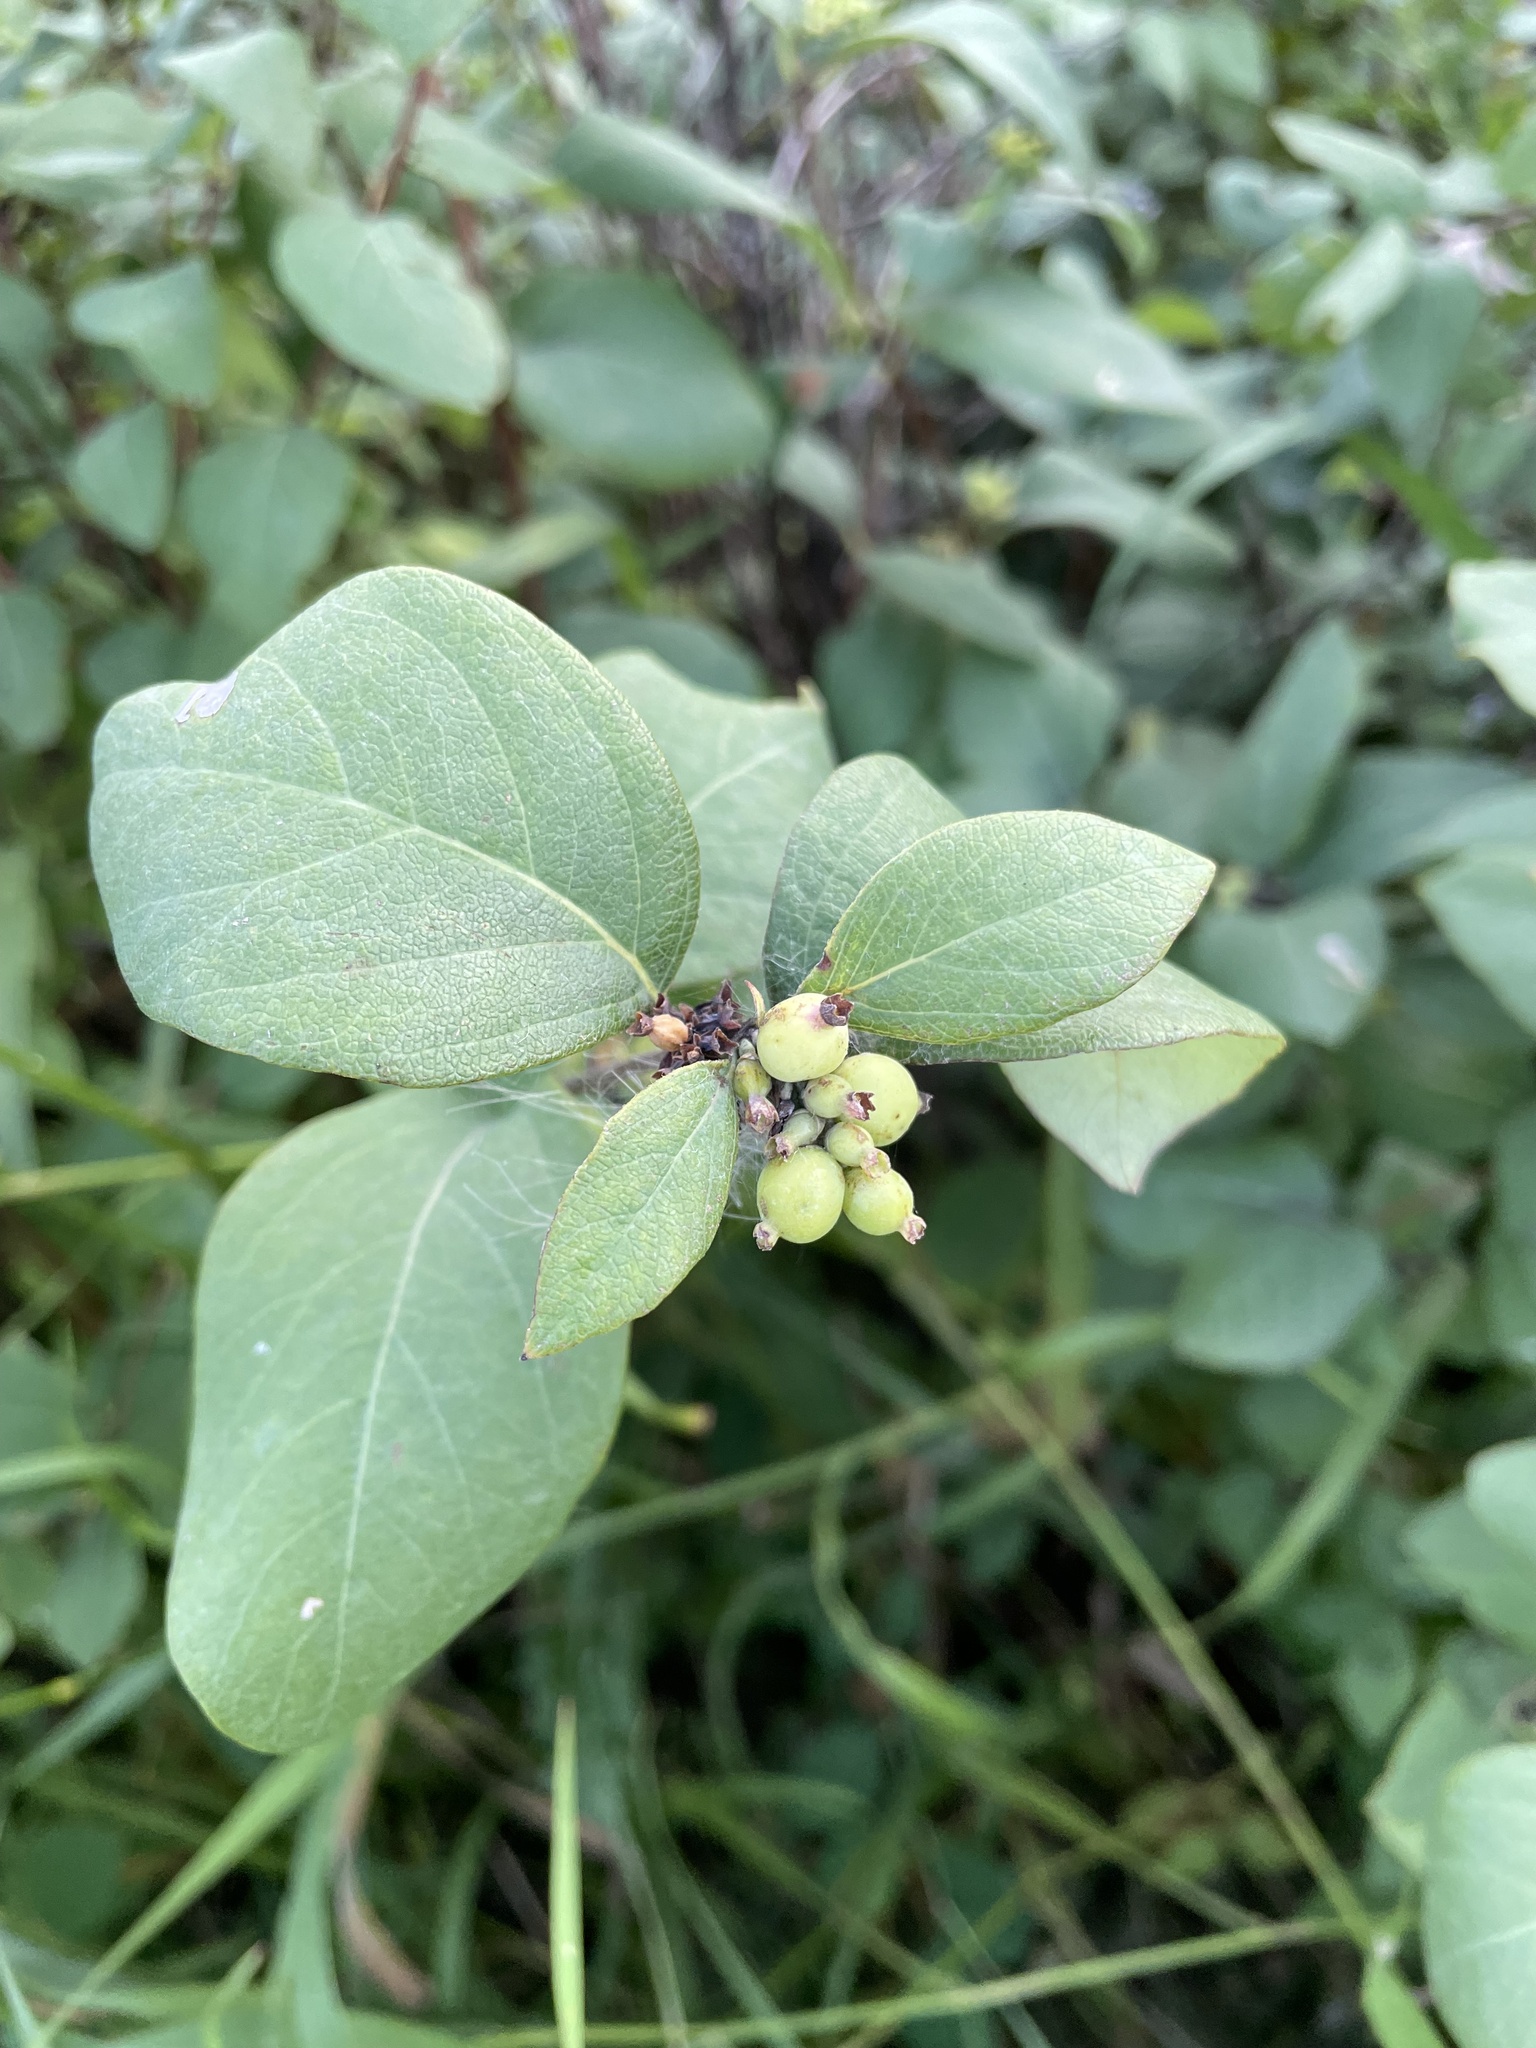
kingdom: Plantae
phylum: Tracheophyta
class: Magnoliopsida
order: Dipsacales
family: Caprifoliaceae
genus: Symphoricarpos
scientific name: Symphoricarpos occidentalis
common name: Wolfberry
